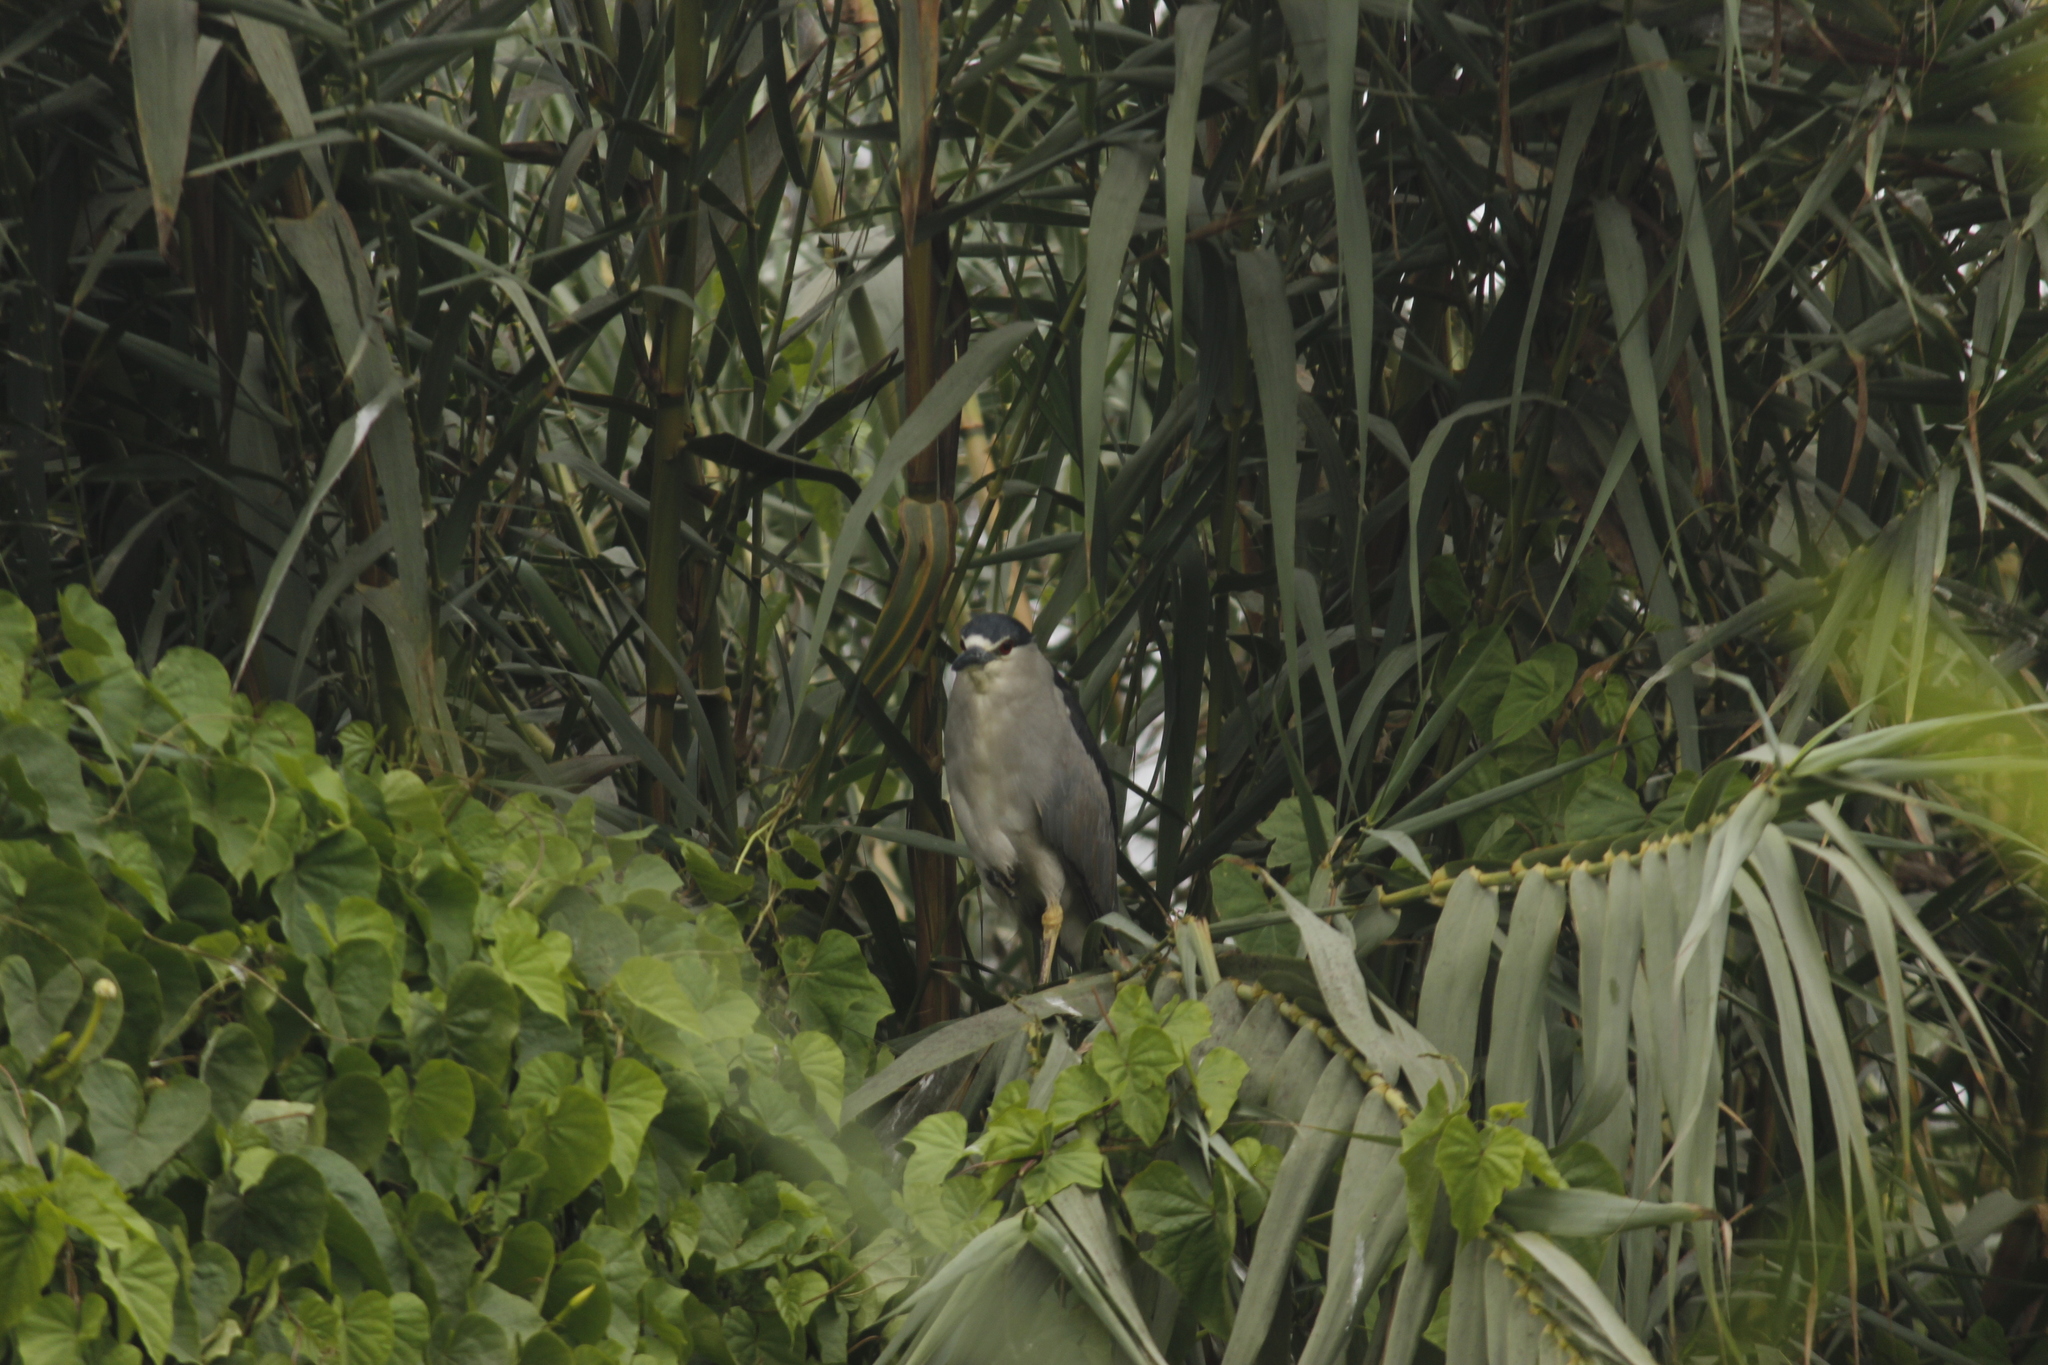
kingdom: Animalia
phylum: Chordata
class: Aves
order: Pelecaniformes
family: Ardeidae
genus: Nycticorax
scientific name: Nycticorax nycticorax
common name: Black-crowned night heron
